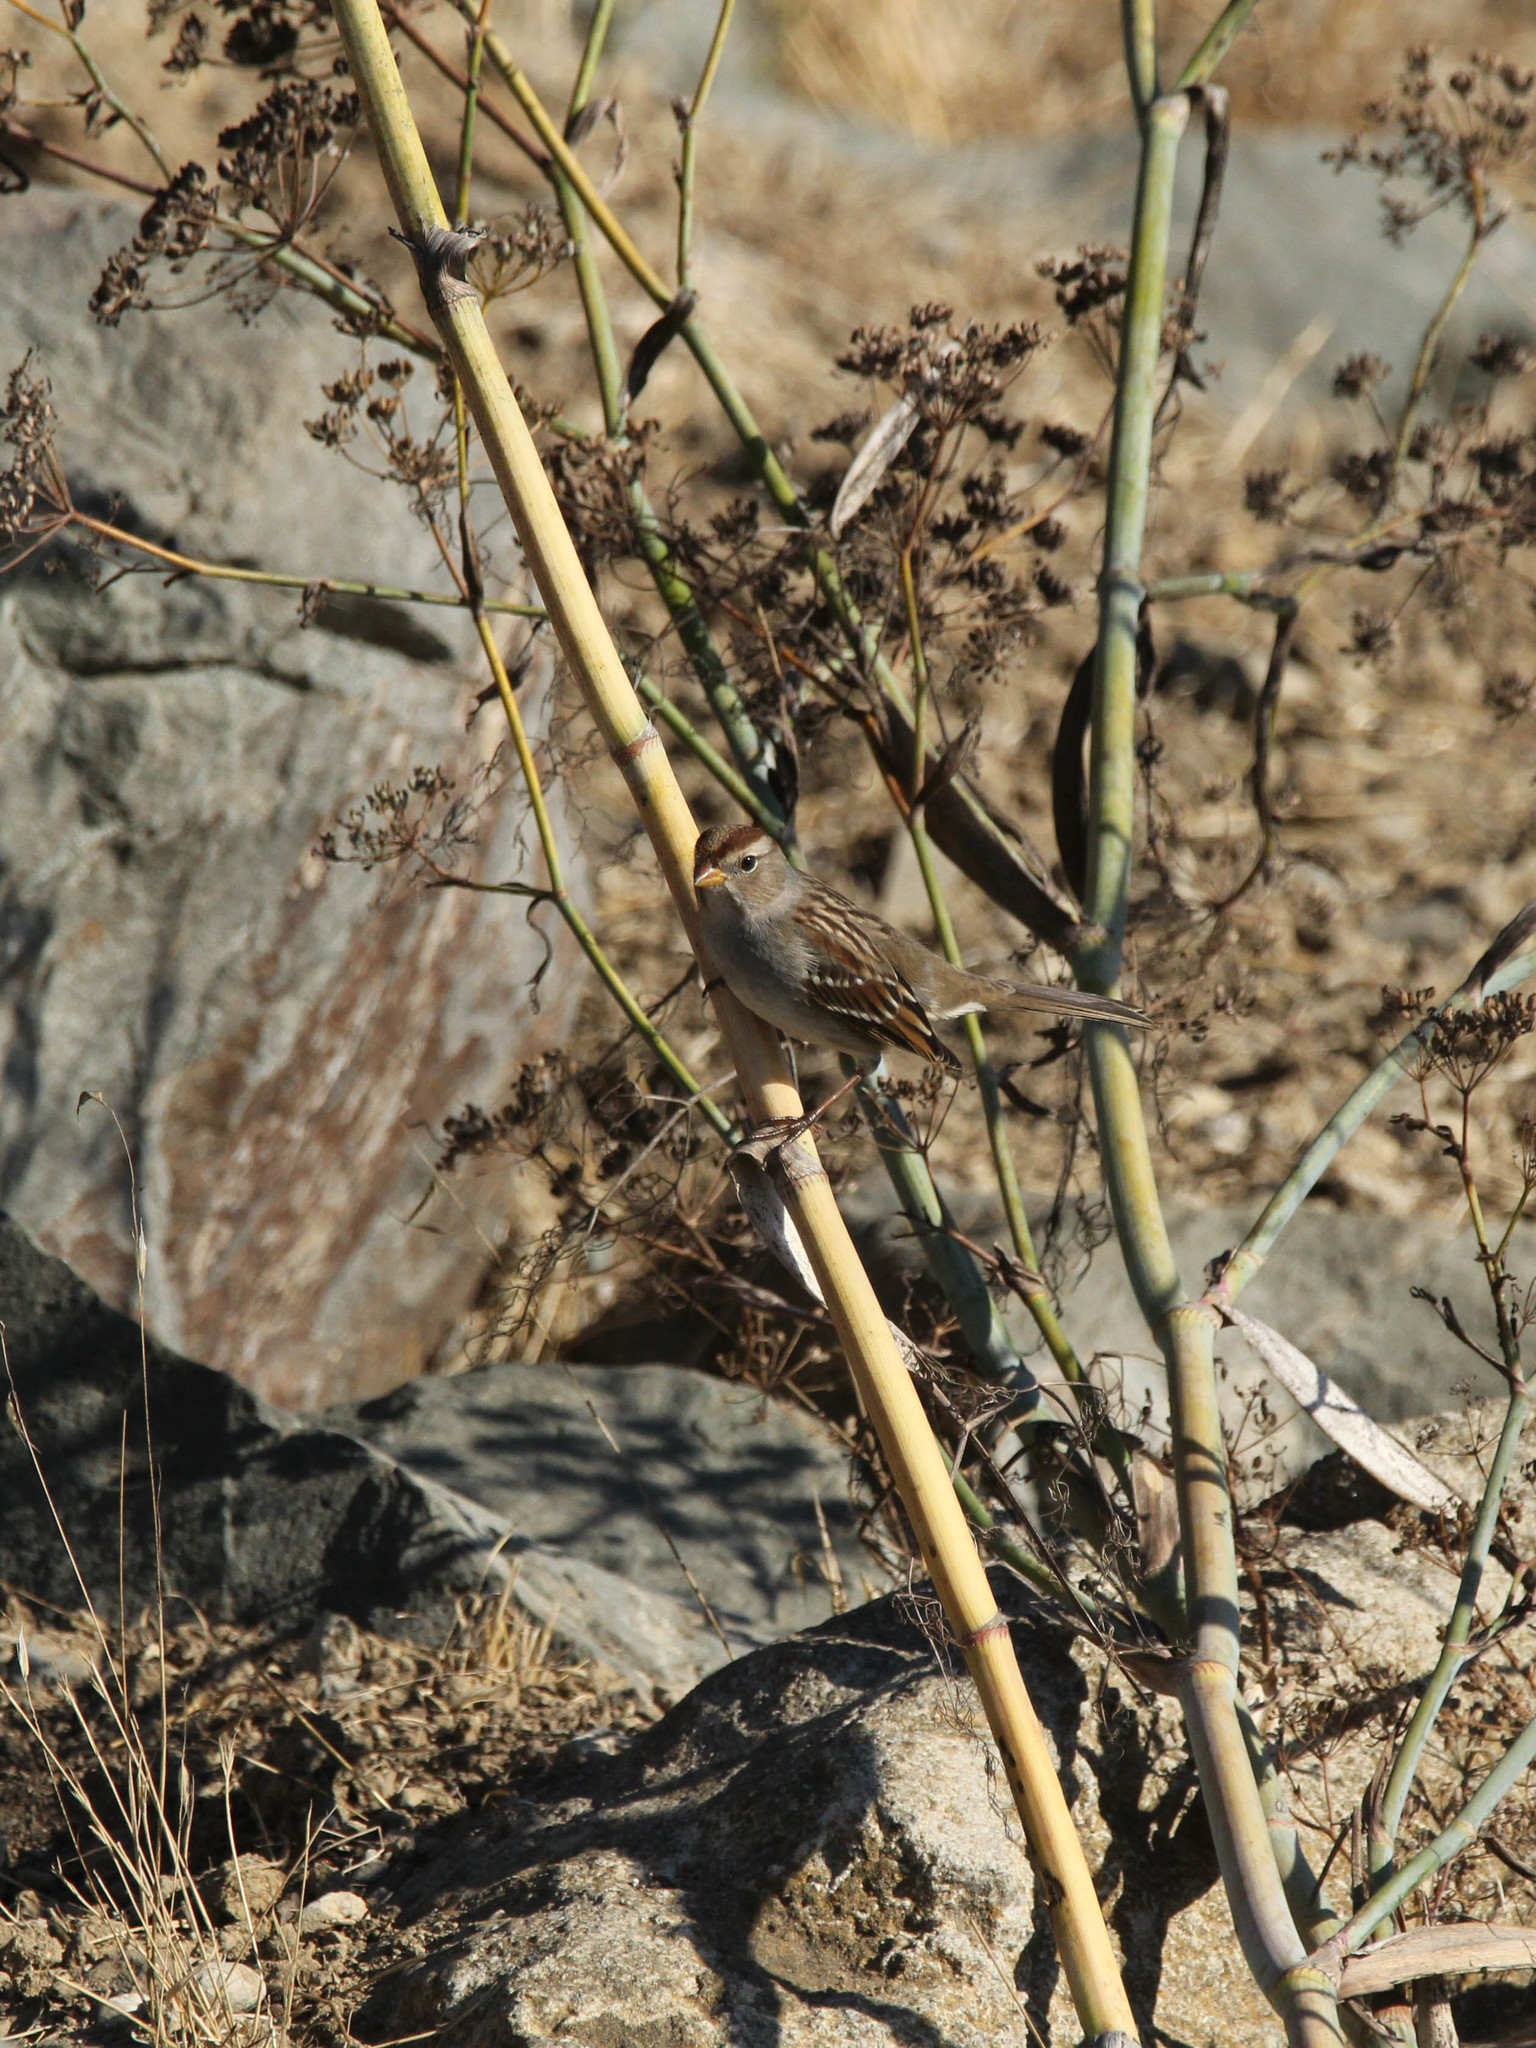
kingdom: Animalia
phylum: Chordata
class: Aves
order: Passeriformes
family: Passerellidae
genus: Zonotrichia
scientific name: Zonotrichia leucophrys
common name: White-crowned sparrow
